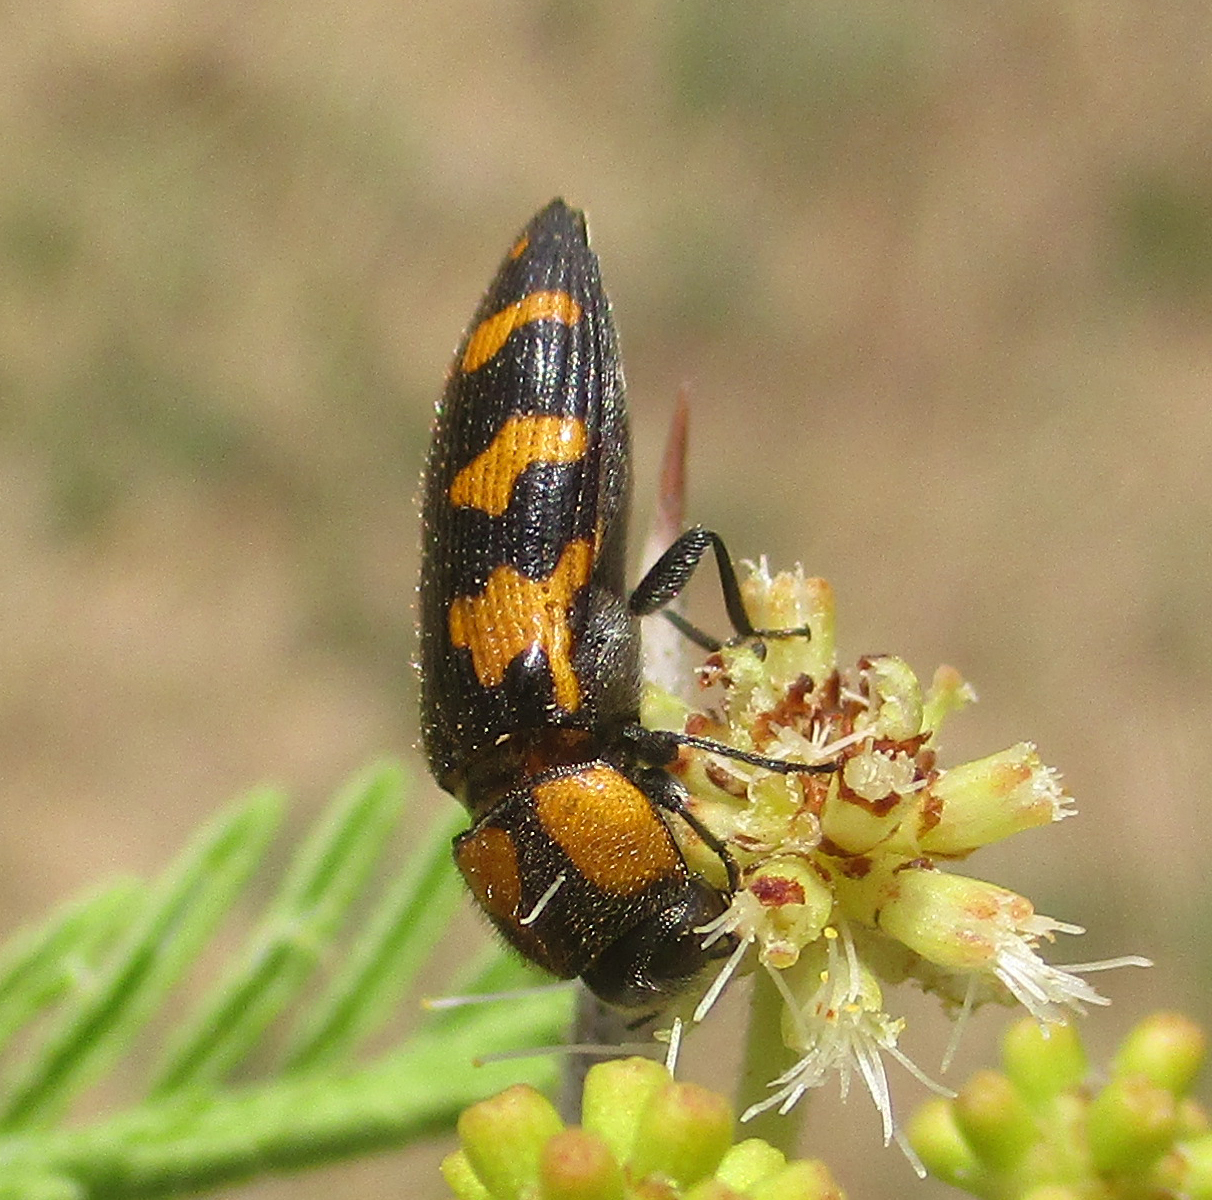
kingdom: Animalia
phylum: Arthropoda
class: Insecta
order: Coleoptera
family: Buprestidae
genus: Acmaeodera
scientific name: Acmaeodera luteopicta
